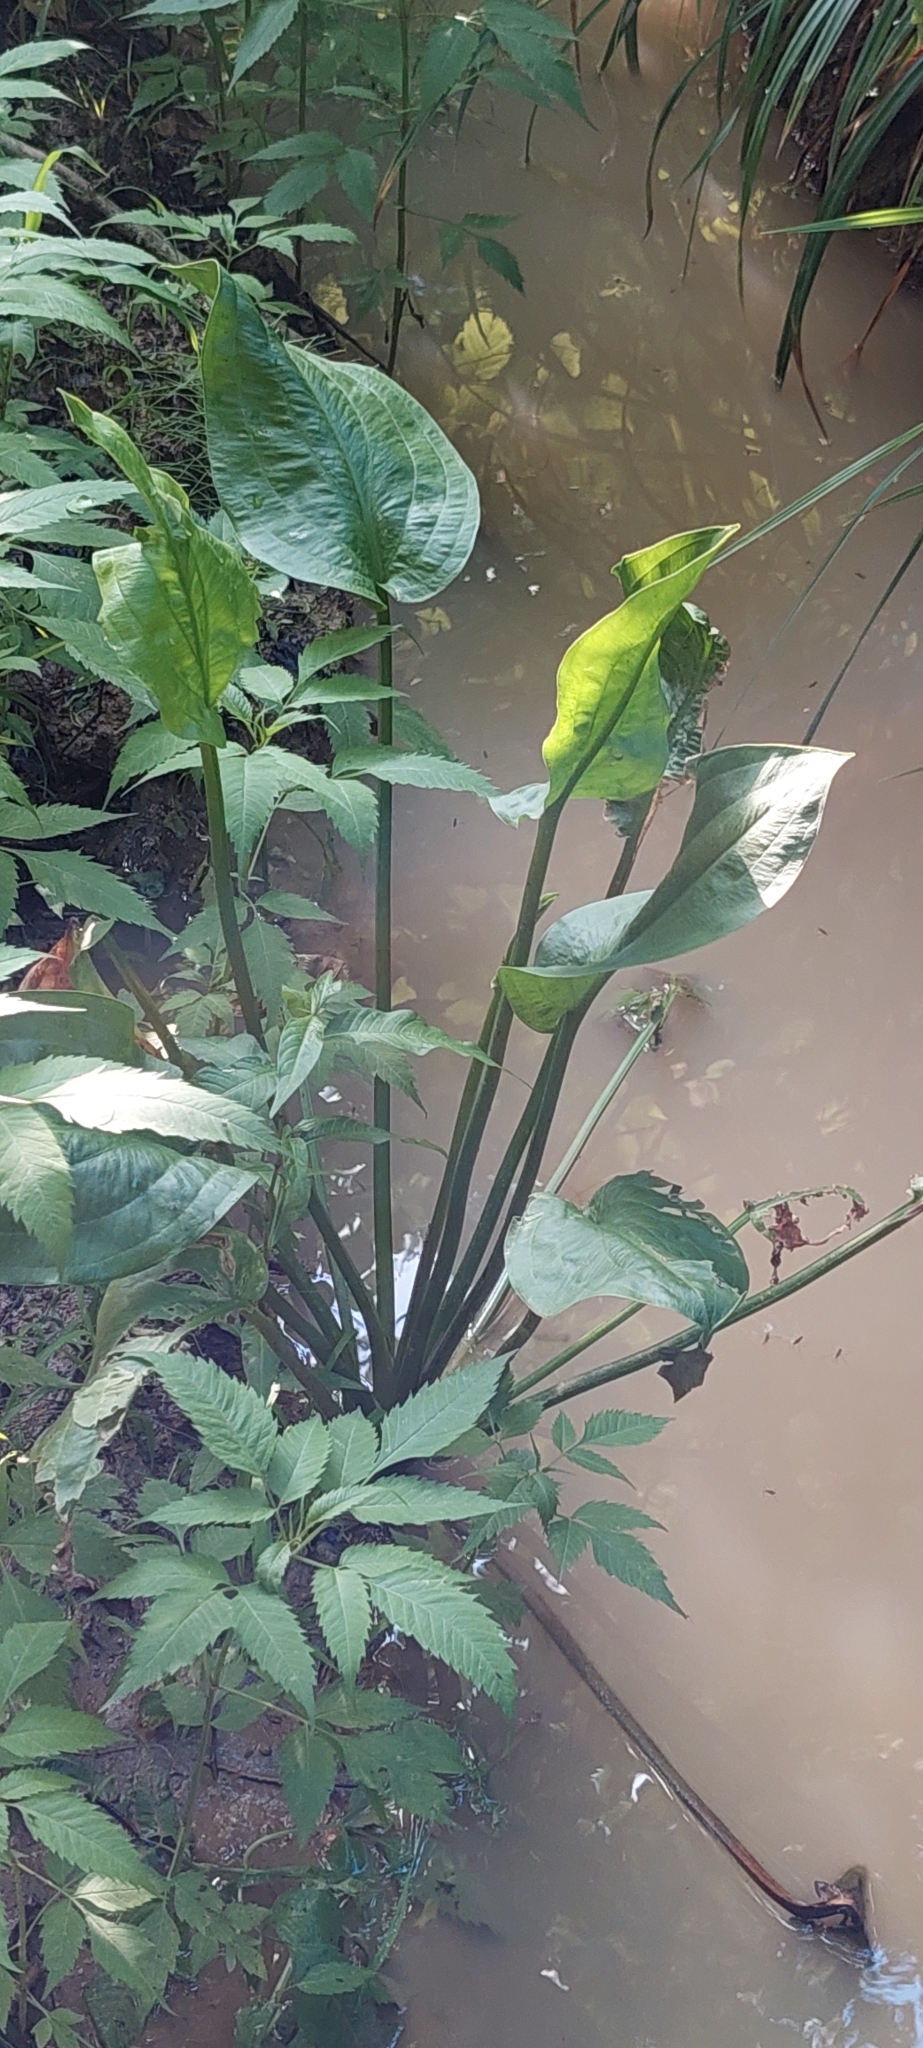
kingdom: Plantae
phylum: Tracheophyta
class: Liliopsida
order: Alismatales
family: Alismataceae
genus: Alisma
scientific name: Alisma plantago-aquatica
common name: Water-plantain
